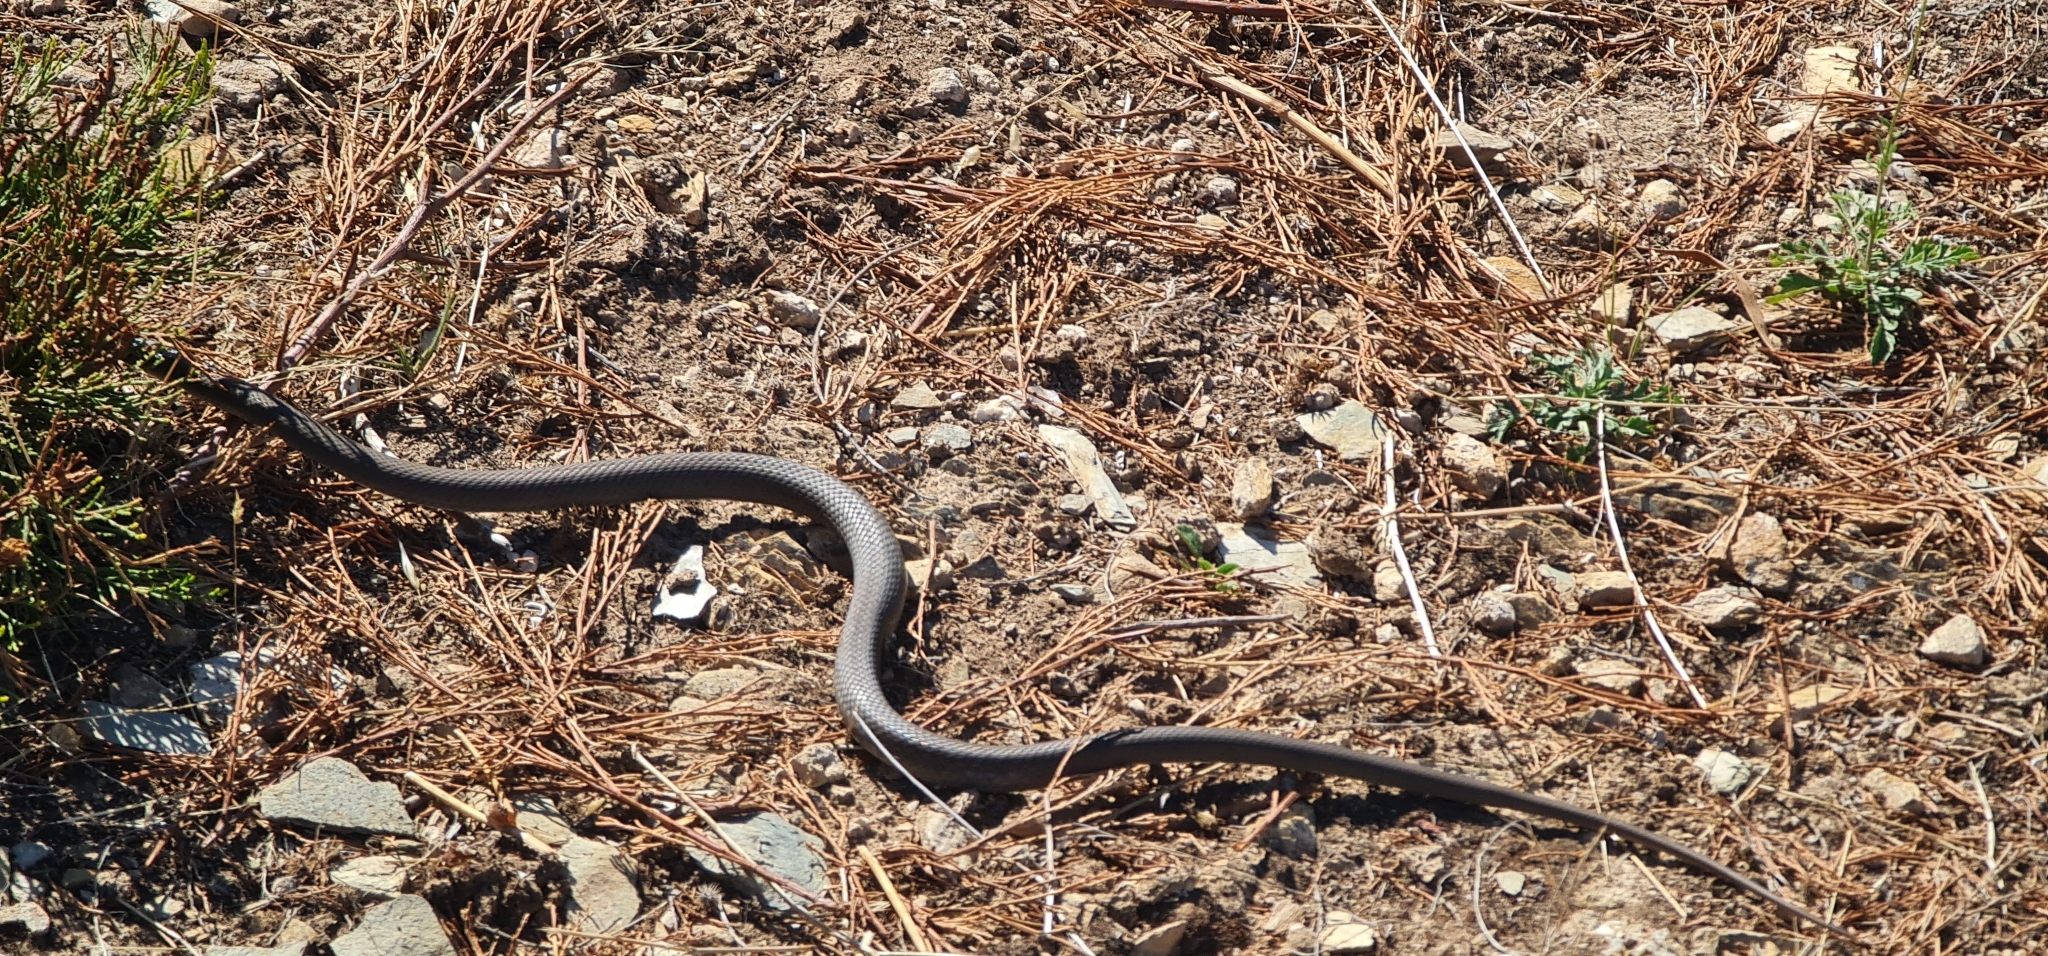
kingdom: Animalia
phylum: Chordata
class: Squamata
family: Elapidae
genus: Pseudonaja
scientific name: Pseudonaja textilis
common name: Eastern brown snake
